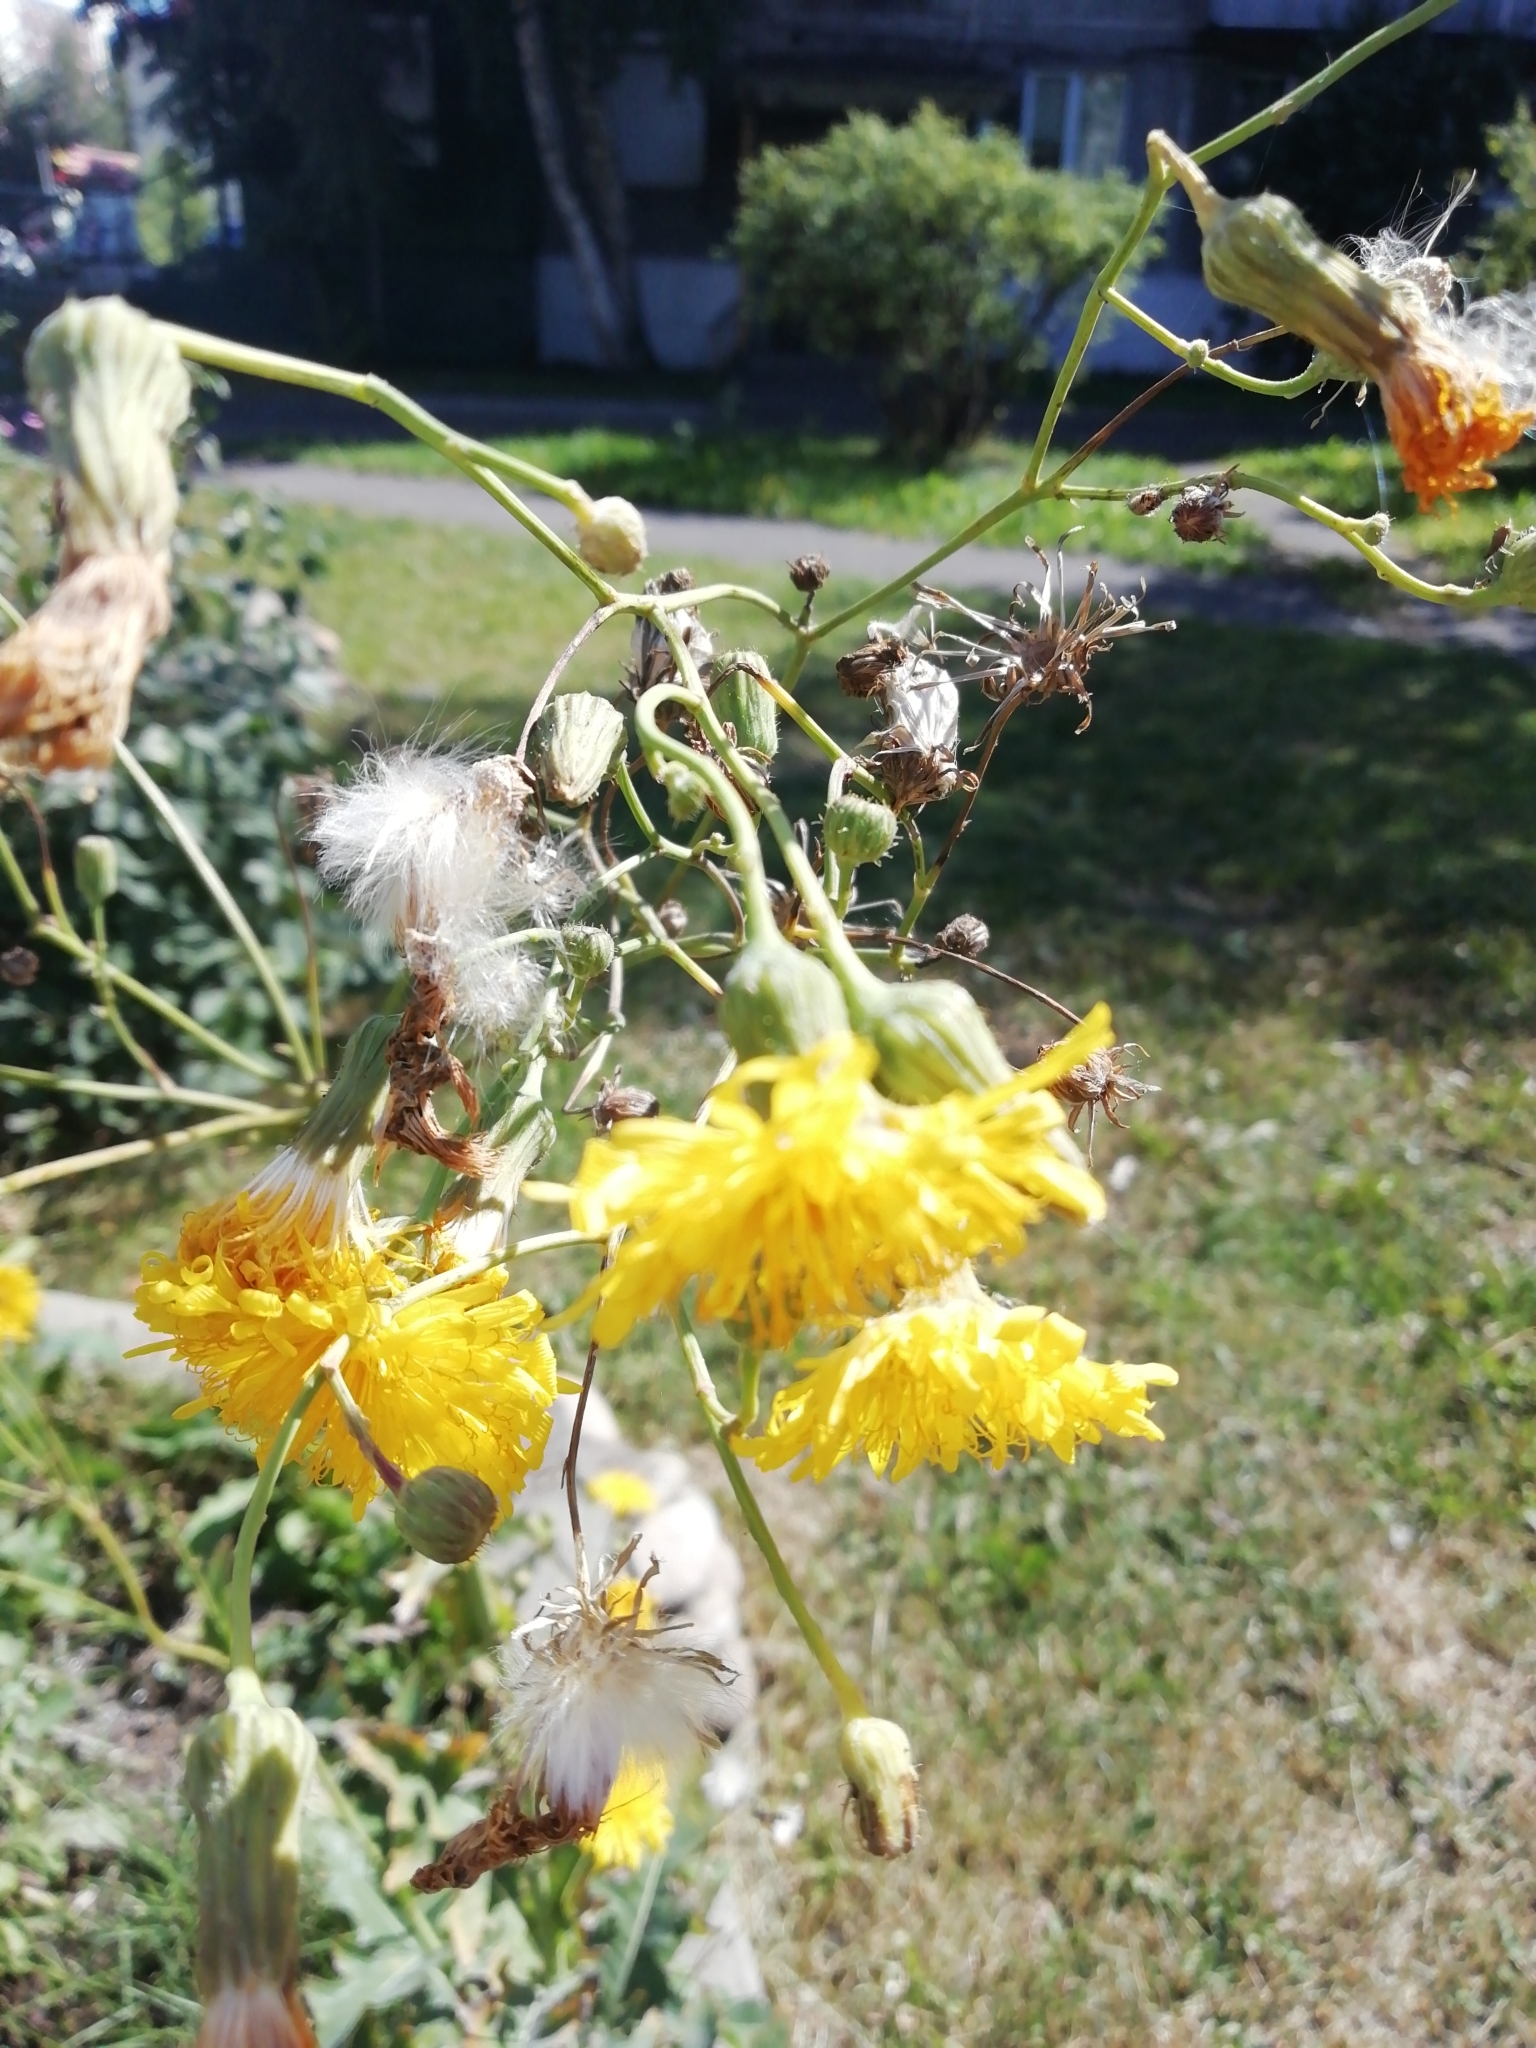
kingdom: Plantae
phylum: Tracheophyta
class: Magnoliopsida
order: Asterales
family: Asteraceae
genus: Sonchus
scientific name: Sonchus arvensis
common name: Perennial sow-thistle
